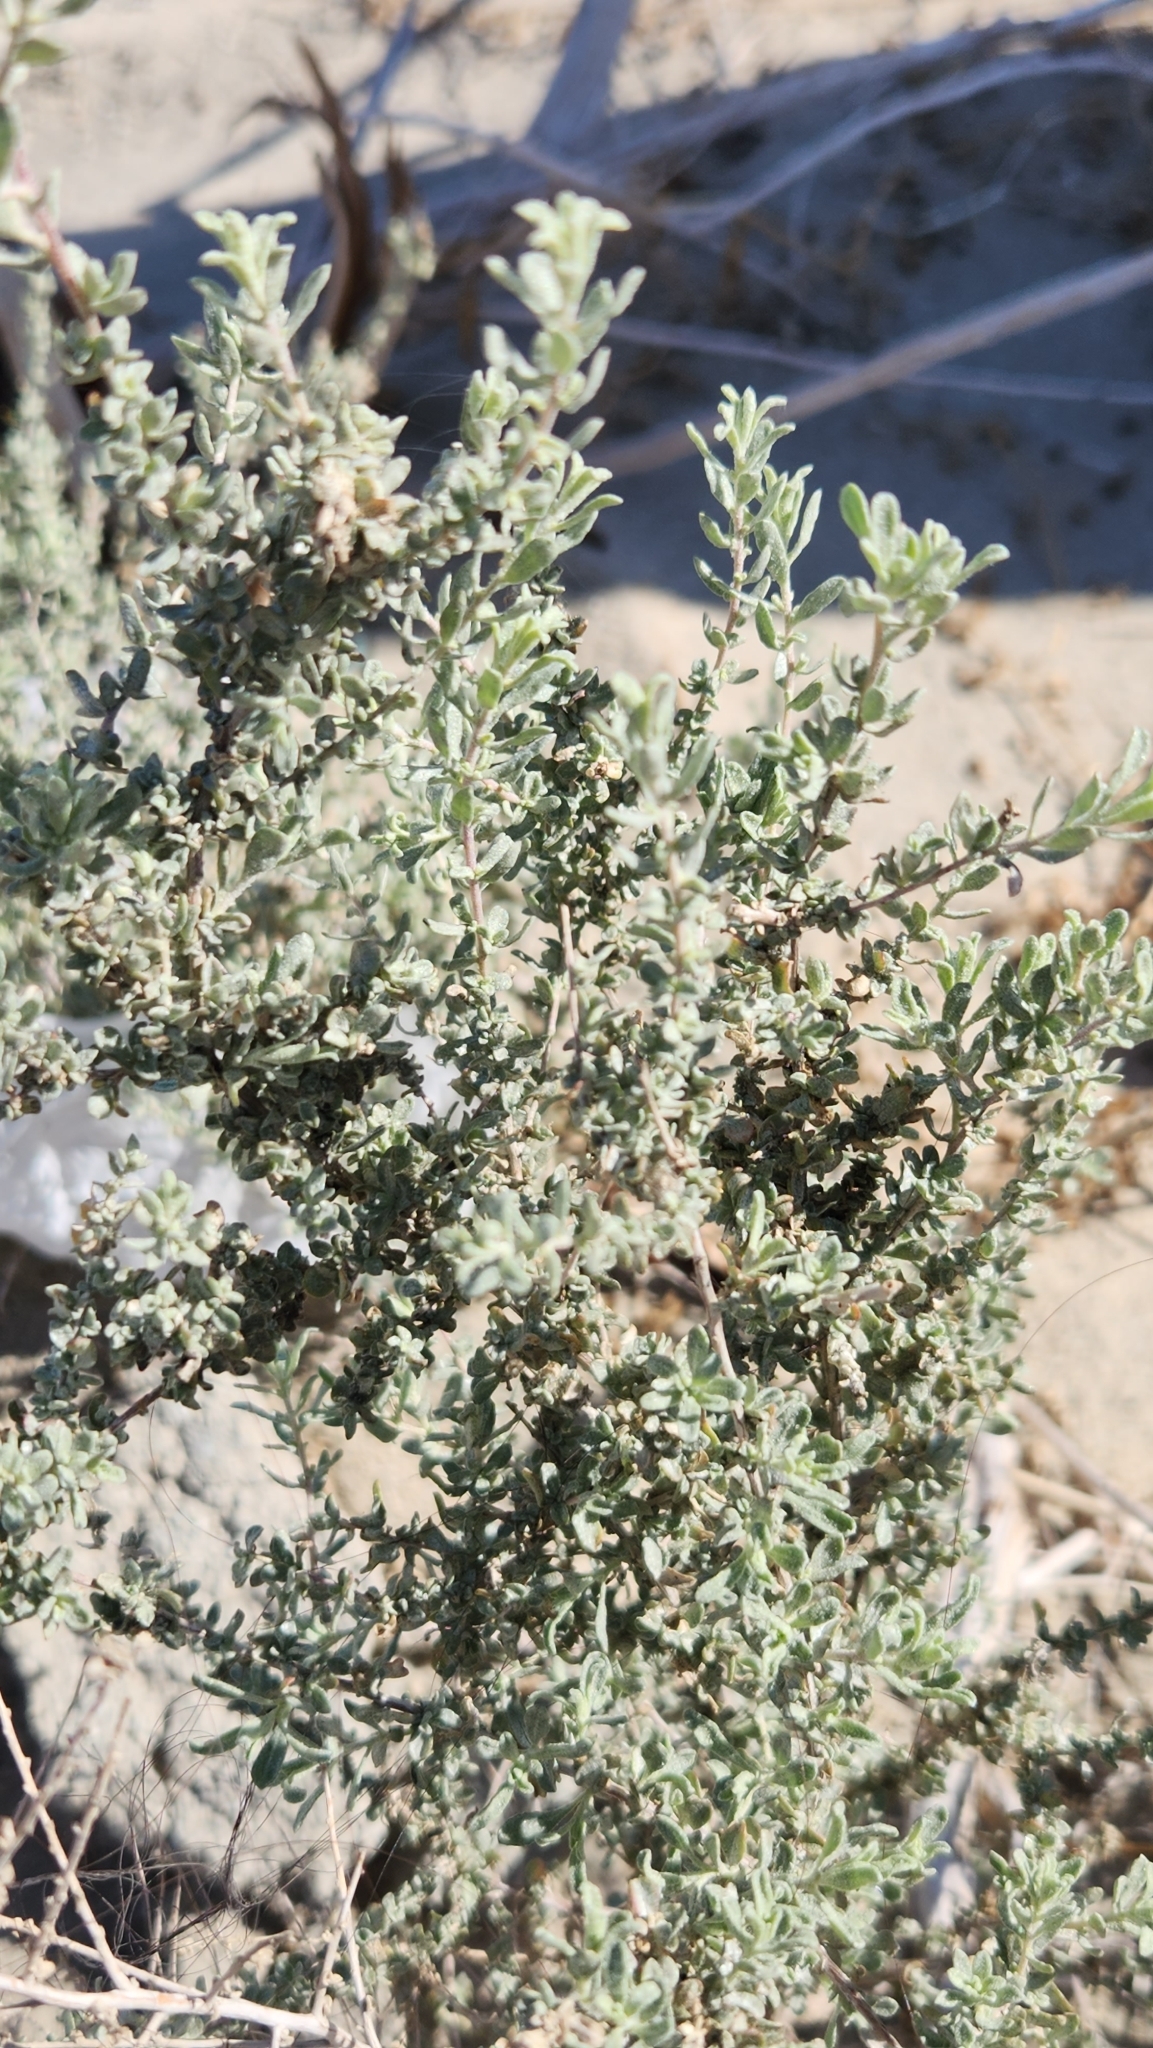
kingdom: Plantae
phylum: Tracheophyta
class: Magnoliopsida
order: Caryophyllales
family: Amaranthaceae
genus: Atriplex
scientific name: Atriplex polycarpa
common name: Desert saltbush
